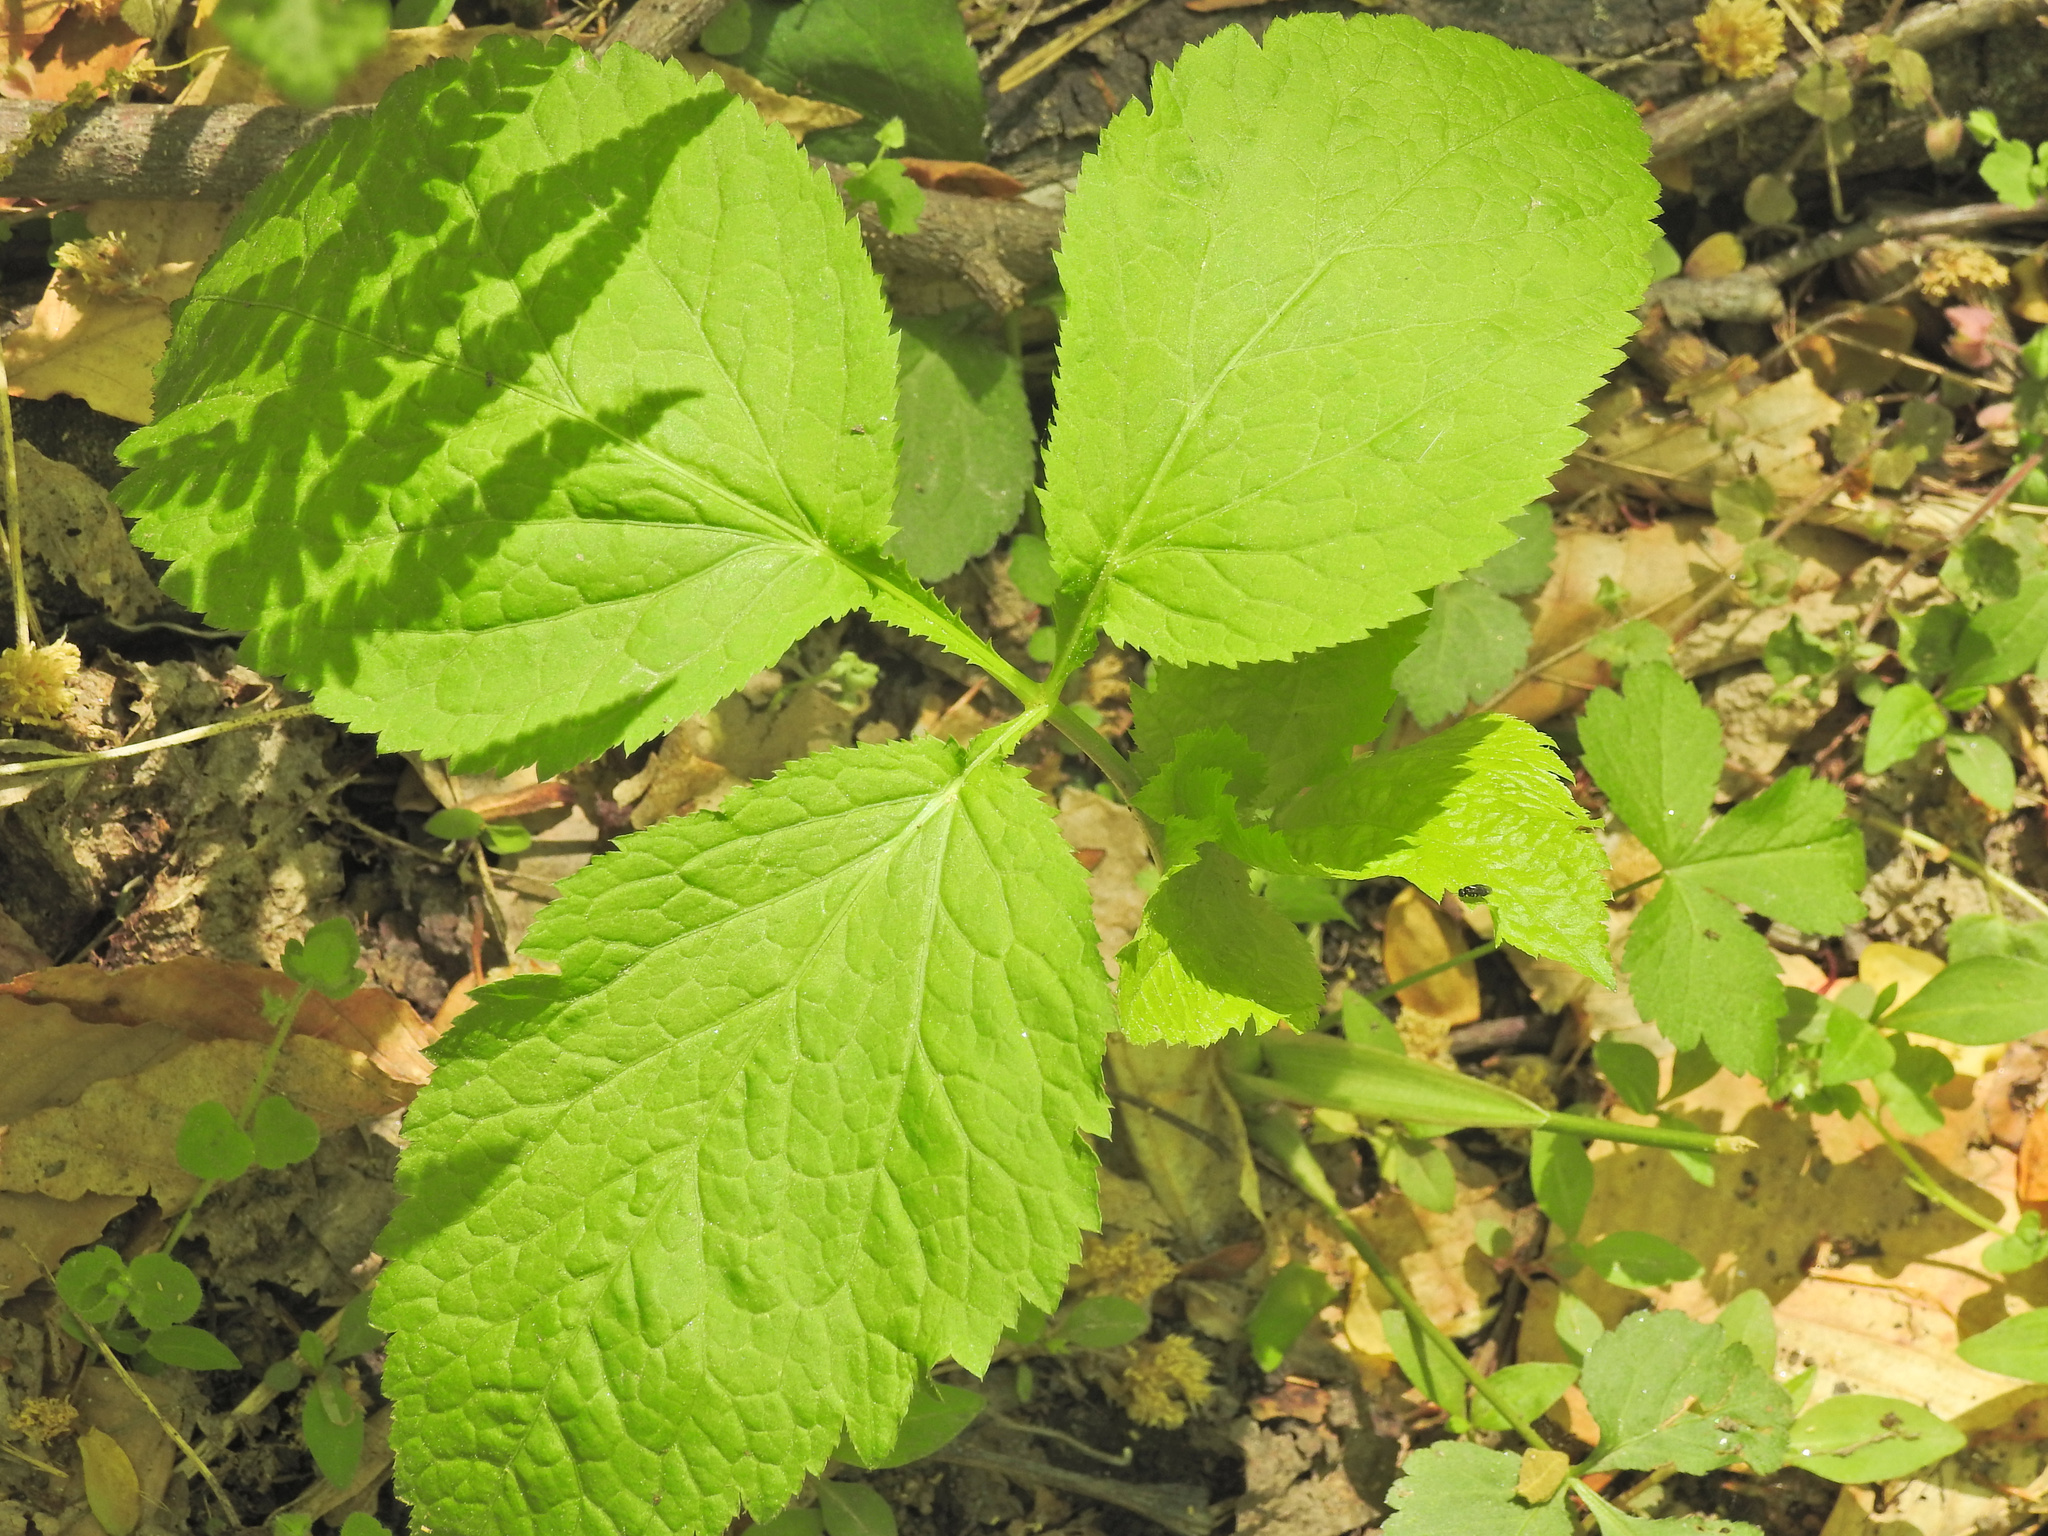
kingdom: Plantae
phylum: Tracheophyta
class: Magnoliopsida
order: Apiales
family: Apiaceae
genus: Cryptotaenia
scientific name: Cryptotaenia canadensis
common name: Honewort
